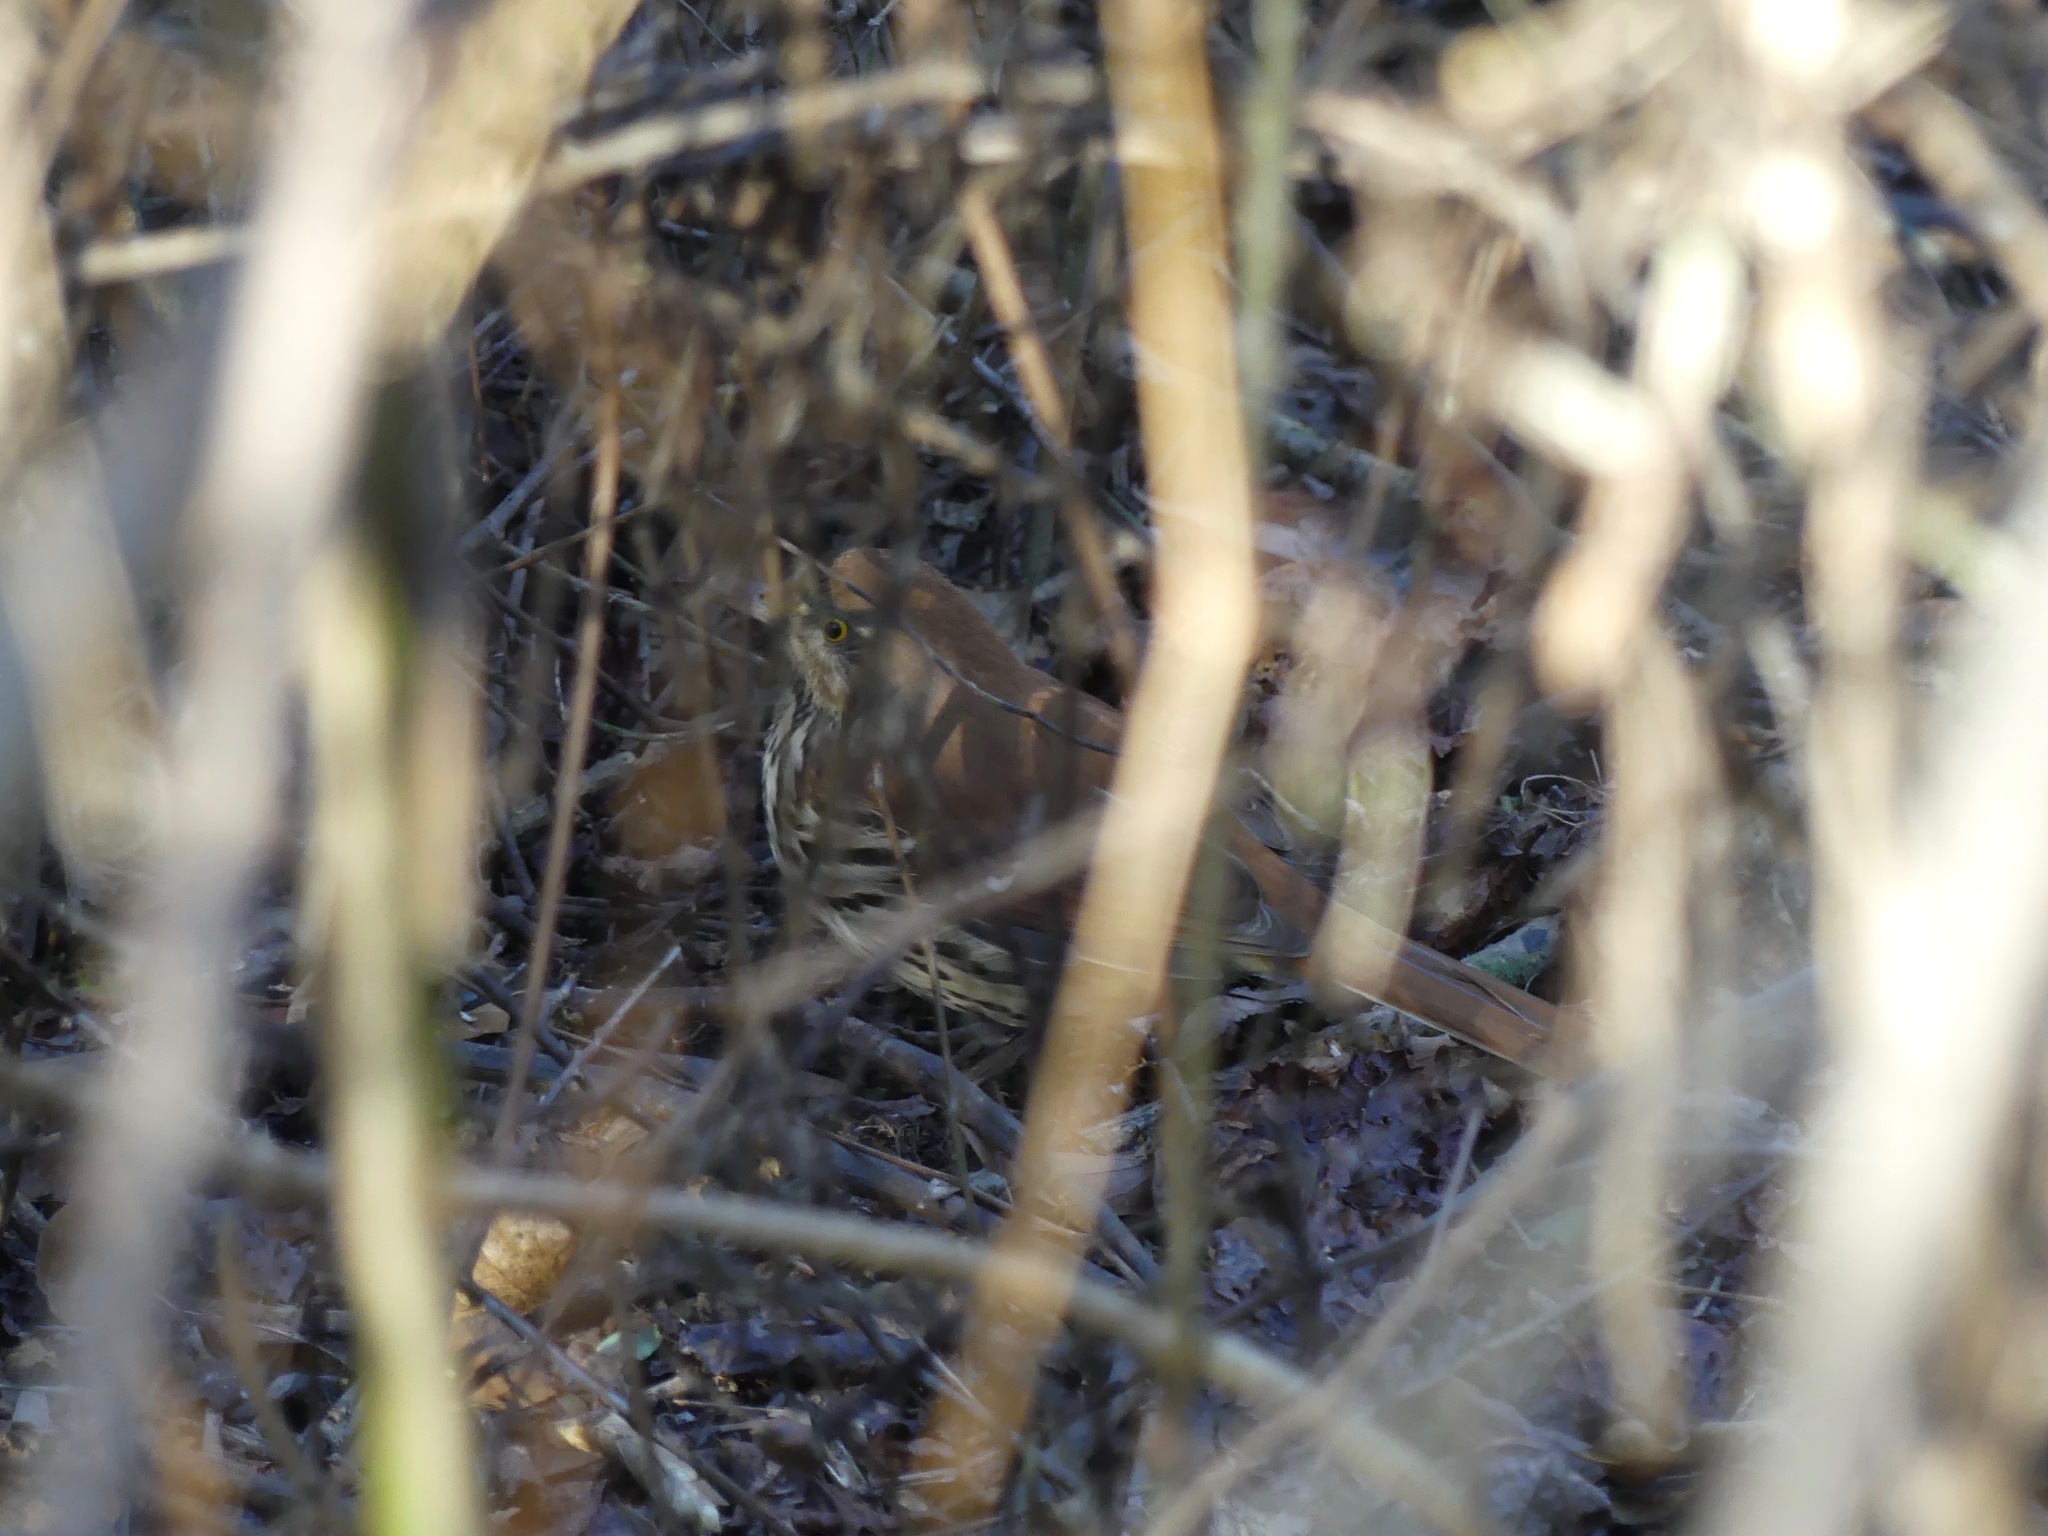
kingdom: Animalia
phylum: Chordata
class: Aves
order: Passeriformes
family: Mimidae
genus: Toxostoma
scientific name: Toxostoma rufum
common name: Brown thrasher
